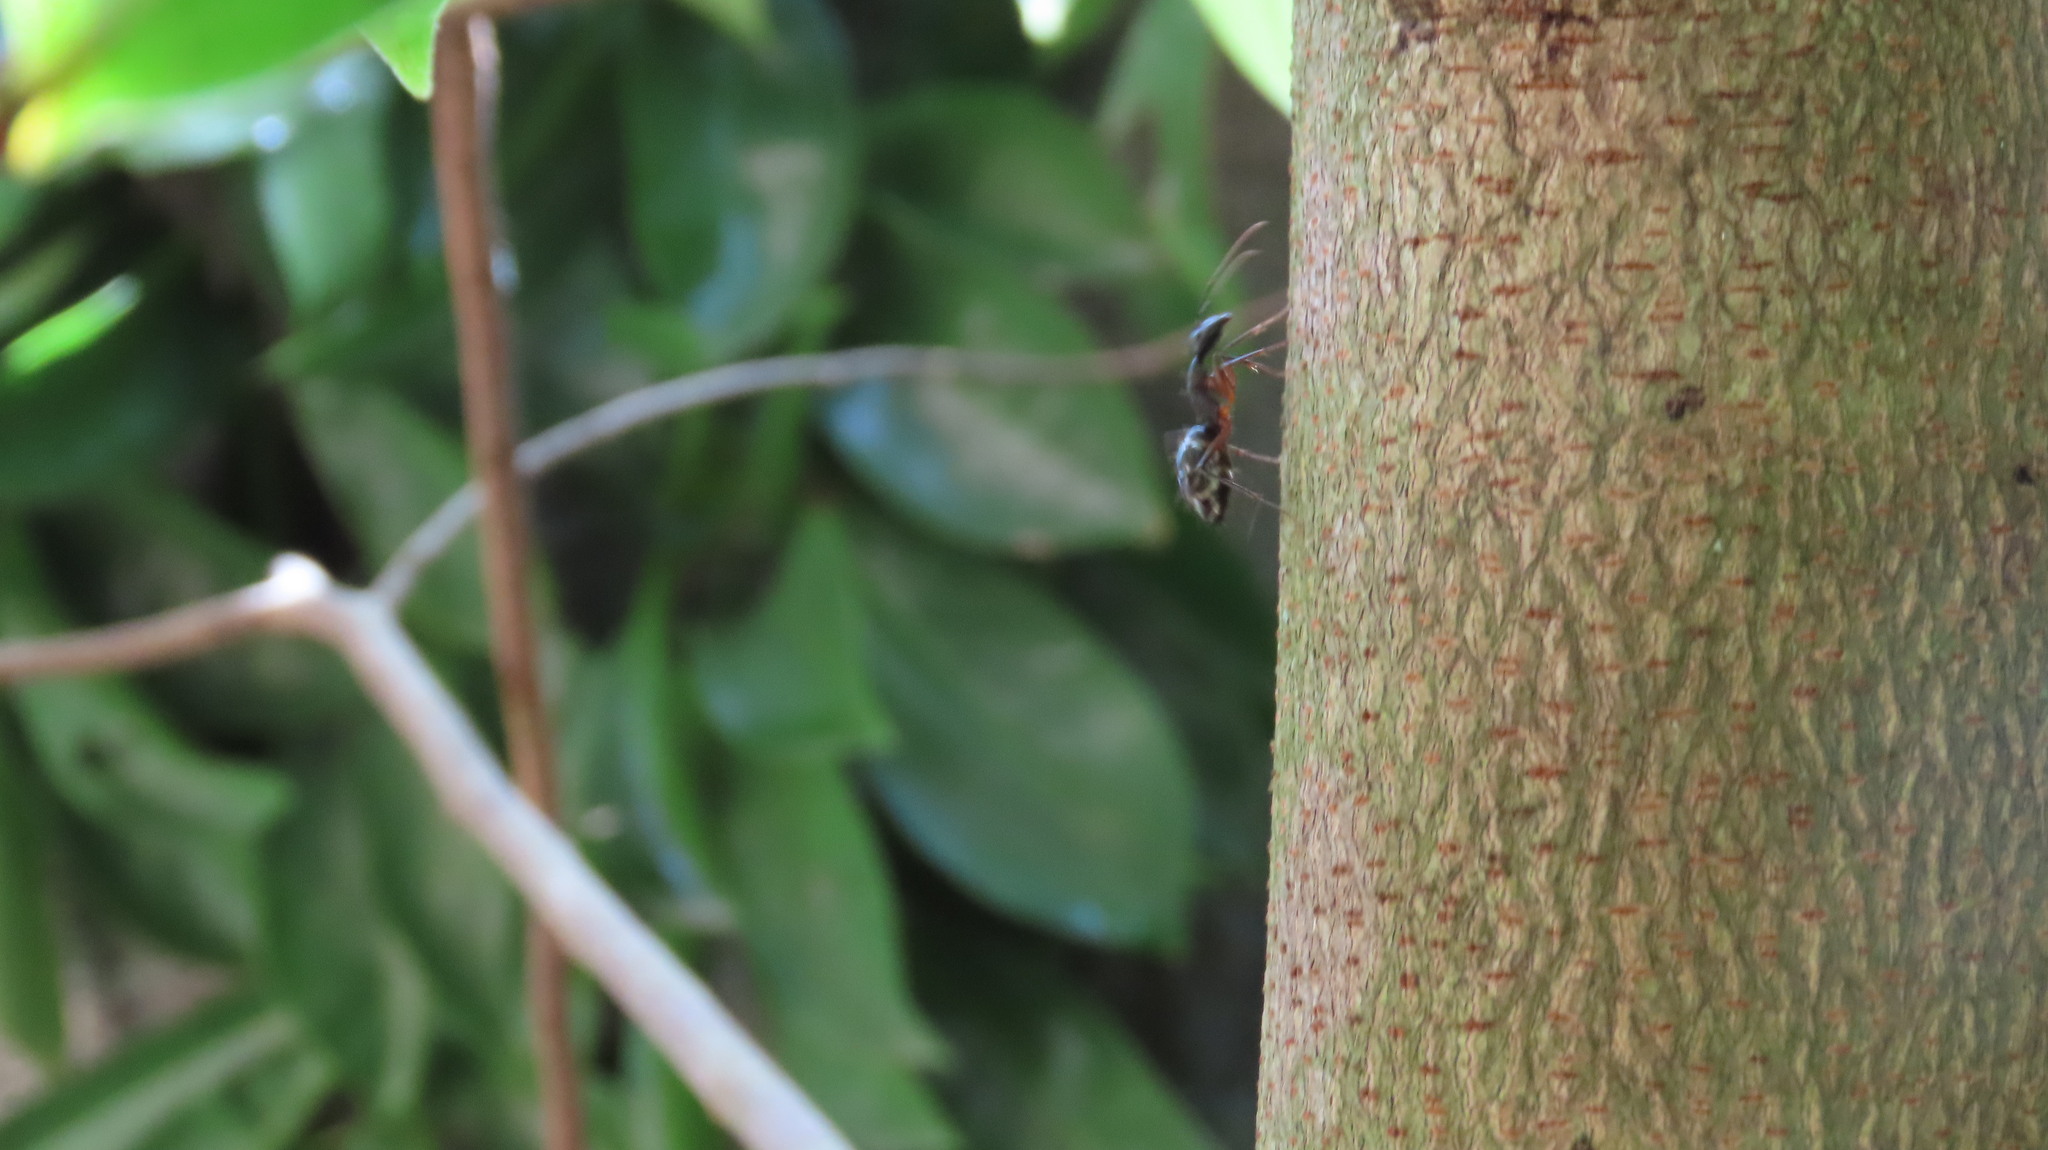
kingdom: Animalia
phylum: Arthropoda
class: Insecta
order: Hymenoptera
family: Formicidae
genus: Camponotus
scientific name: Camponotus compressus
